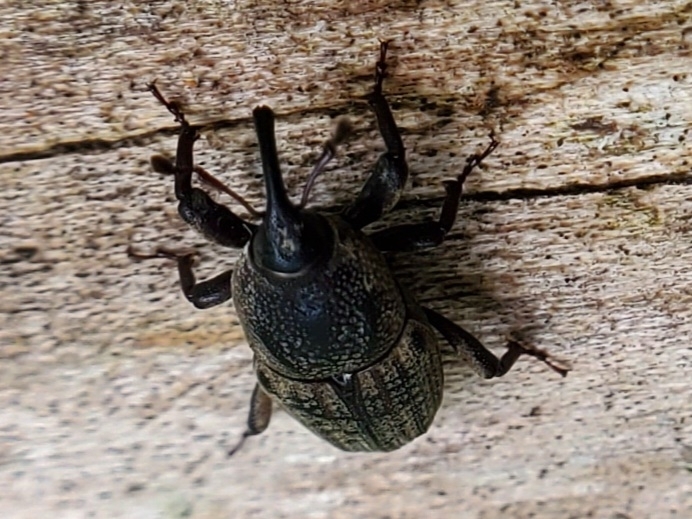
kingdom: Animalia
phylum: Arthropoda
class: Insecta
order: Coleoptera
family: Dryophthoridae
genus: Sphenophorus
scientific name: Sphenophorus venatus
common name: Hunting billbug
